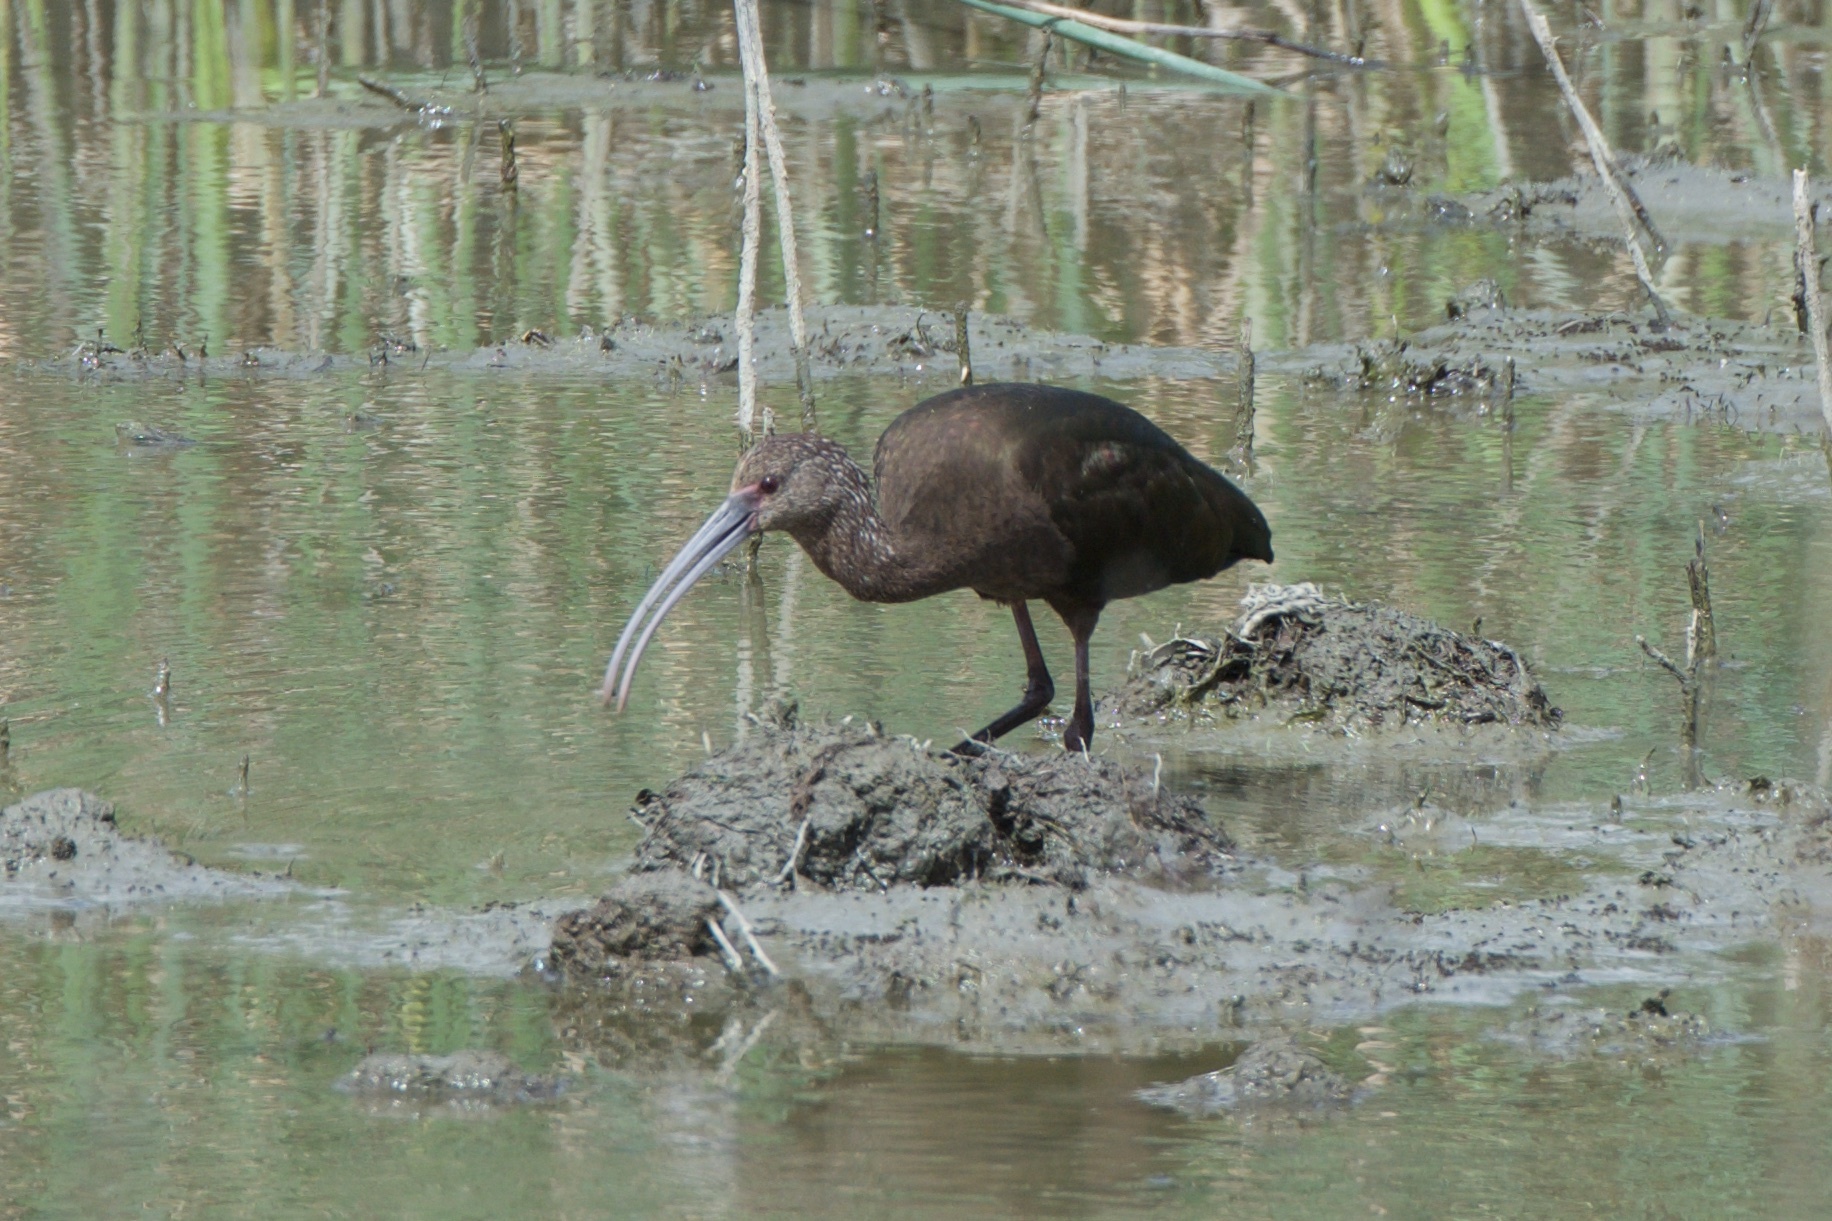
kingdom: Animalia
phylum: Chordata
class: Aves
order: Pelecaniformes
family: Threskiornithidae
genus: Plegadis
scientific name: Plegadis chihi
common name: White-faced ibis
